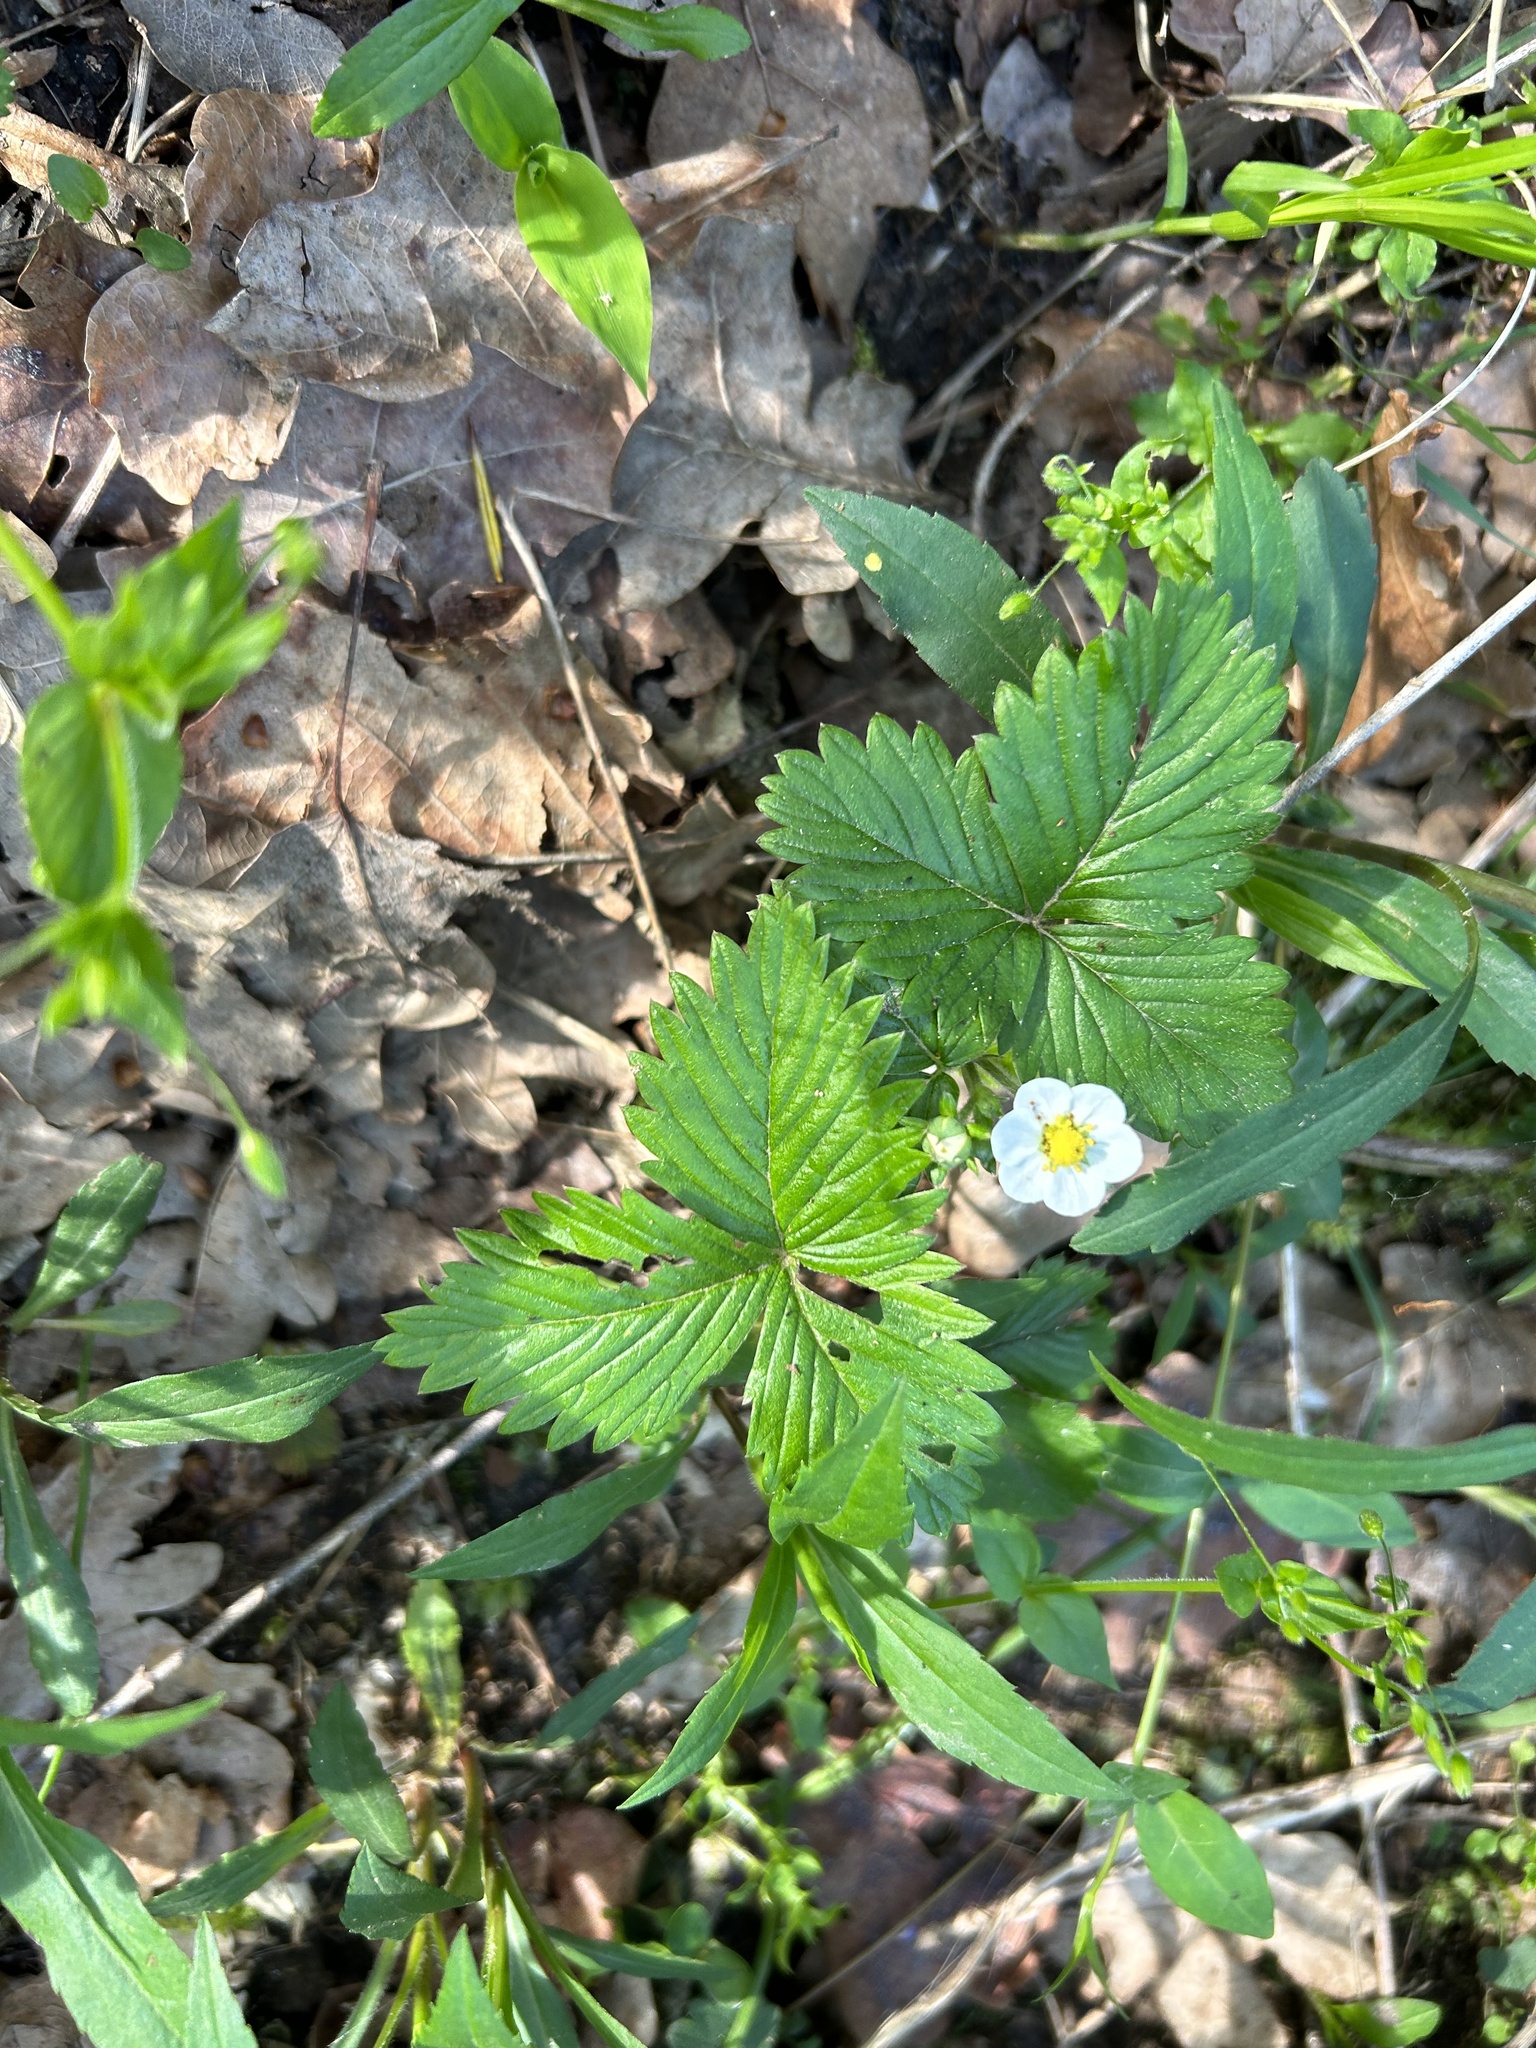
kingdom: Plantae
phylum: Tracheophyta
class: Magnoliopsida
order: Rosales
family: Rosaceae
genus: Fragaria
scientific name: Fragaria vesca
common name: Wild strawberry
